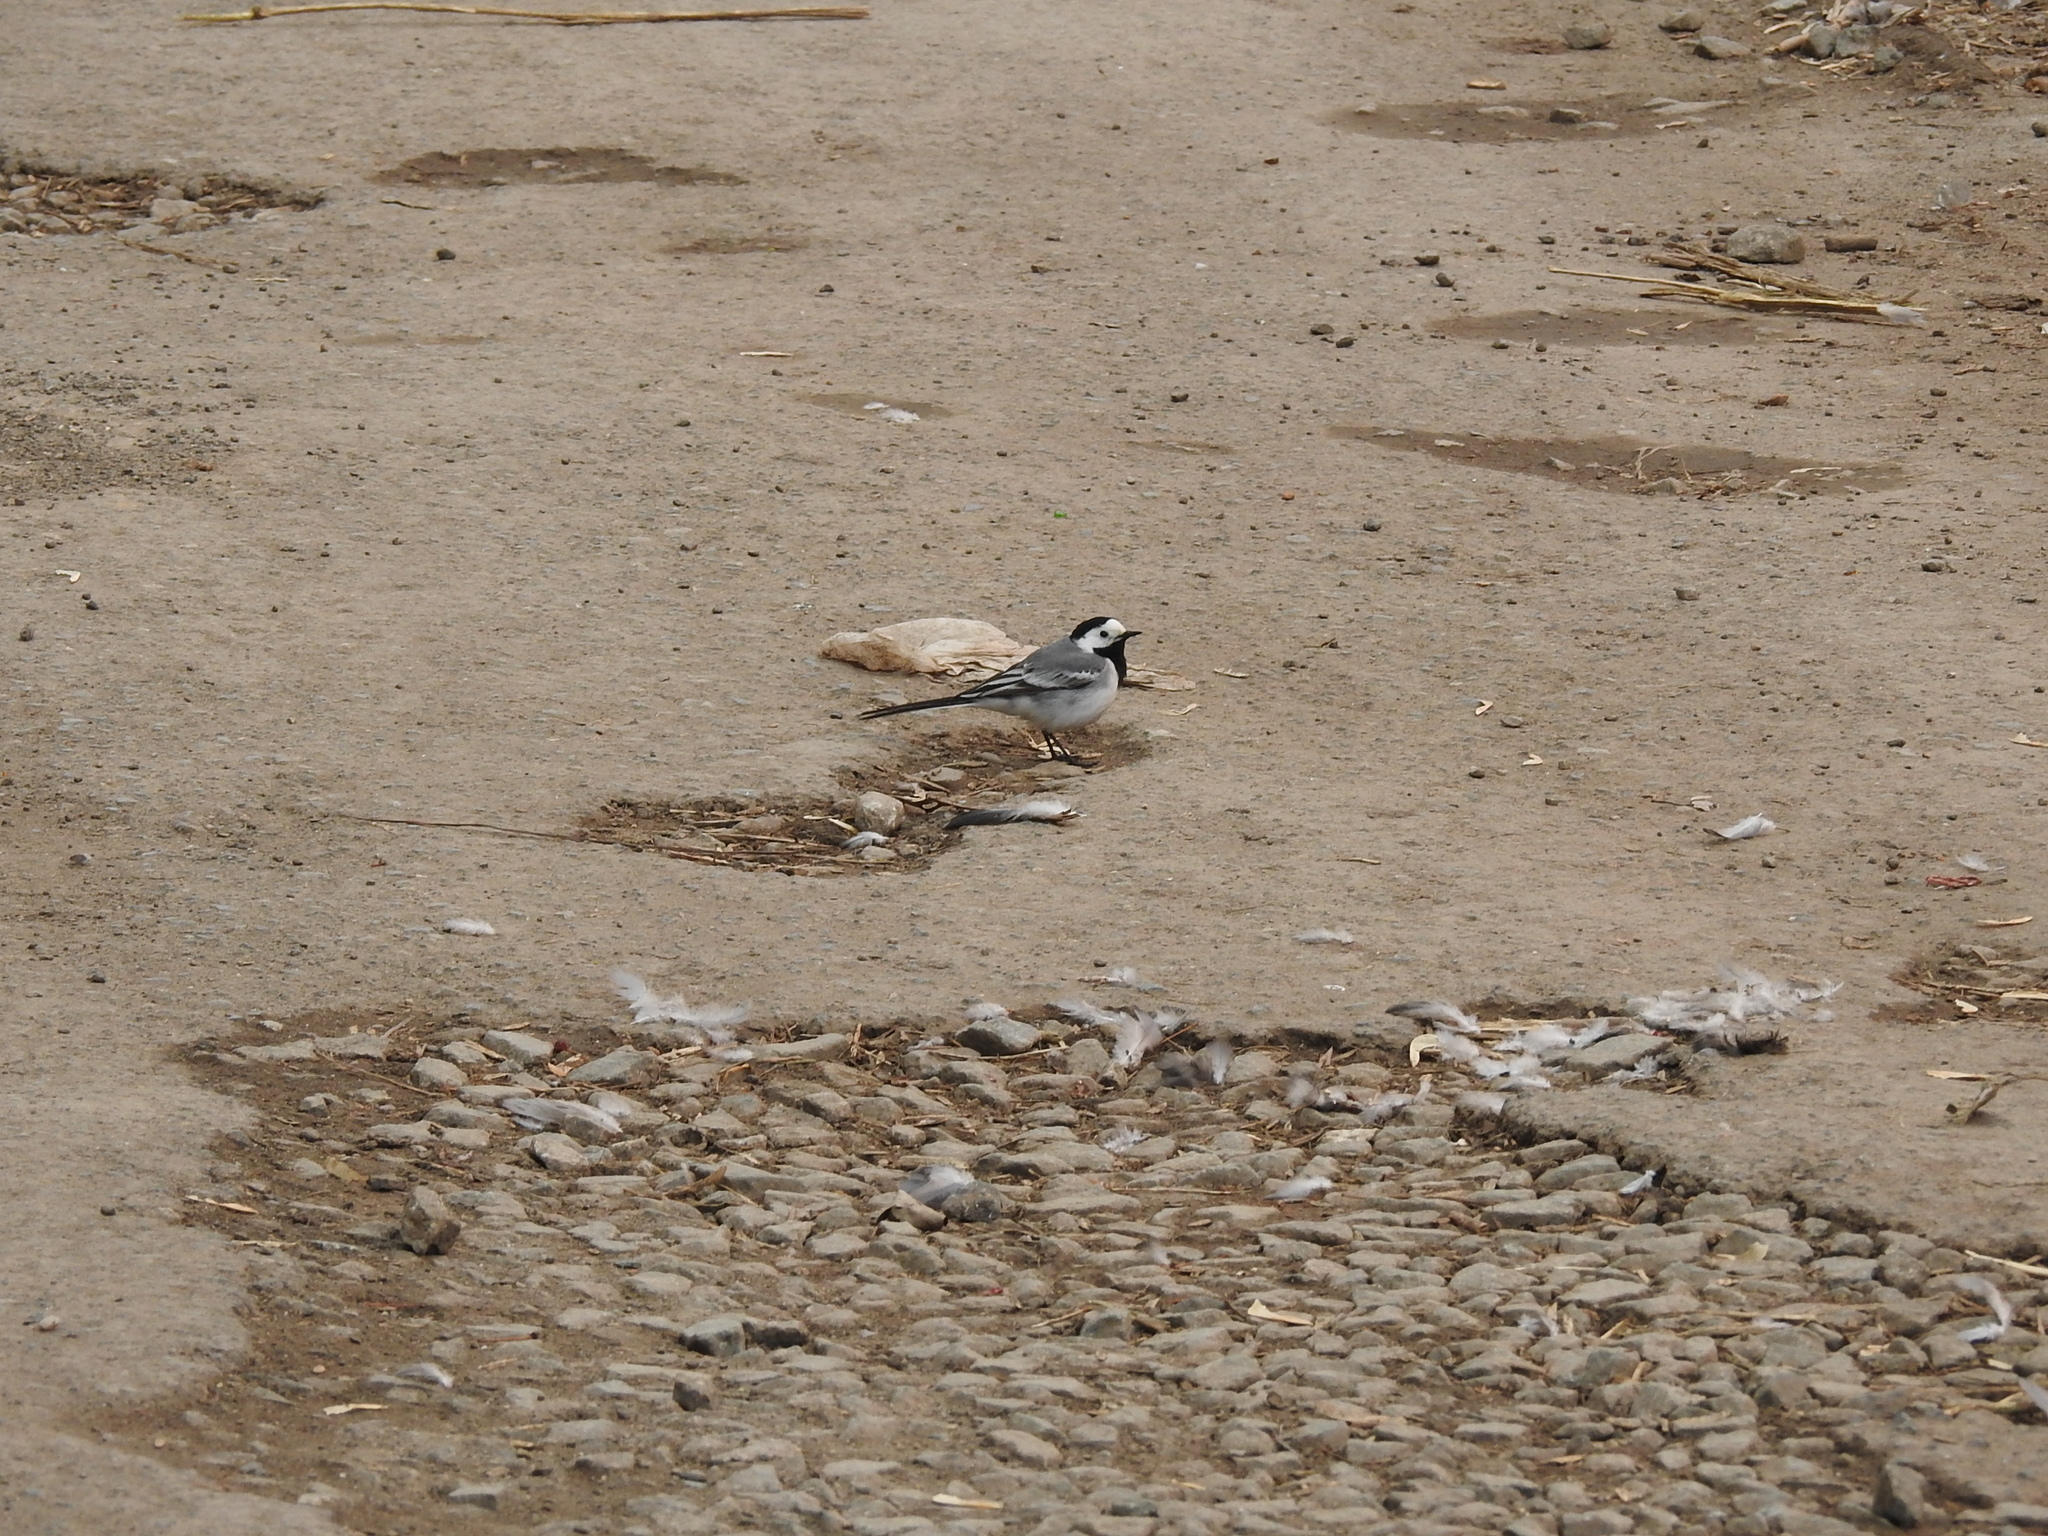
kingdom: Animalia
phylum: Chordata
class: Aves
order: Passeriformes
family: Motacillidae
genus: Motacilla
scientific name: Motacilla alba
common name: White wagtail
